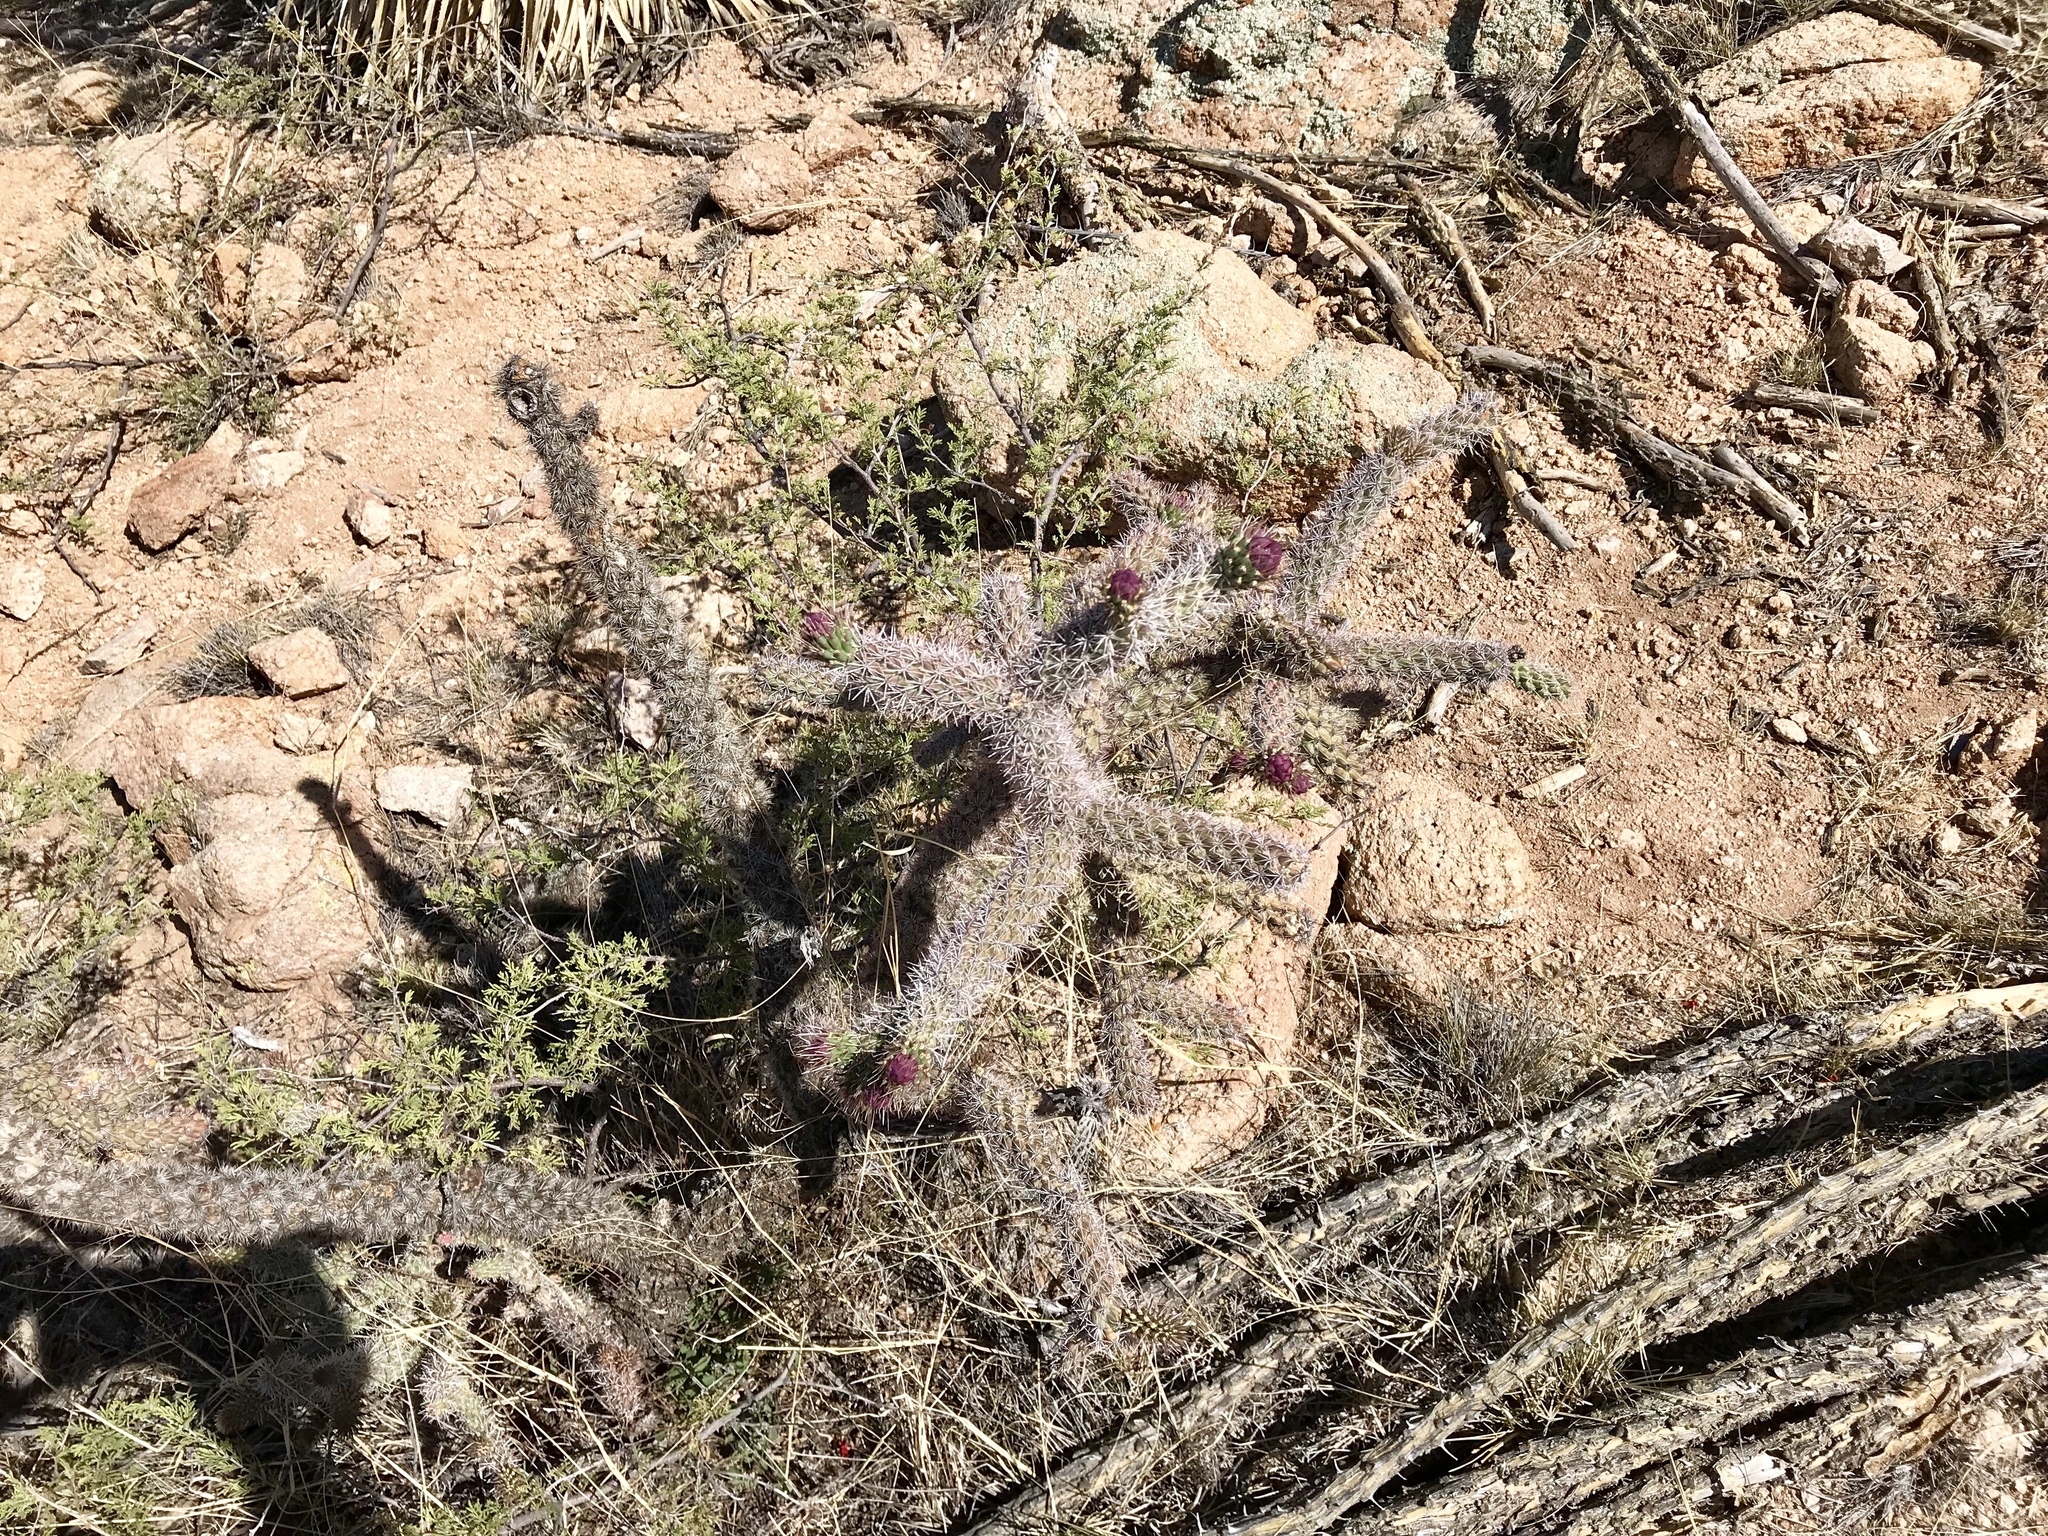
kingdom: Plantae
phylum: Tracheophyta
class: Magnoliopsida
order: Caryophyllales
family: Cactaceae
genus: Cylindropuntia
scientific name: Cylindropuntia imbricata
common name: Candelabrum cactus
